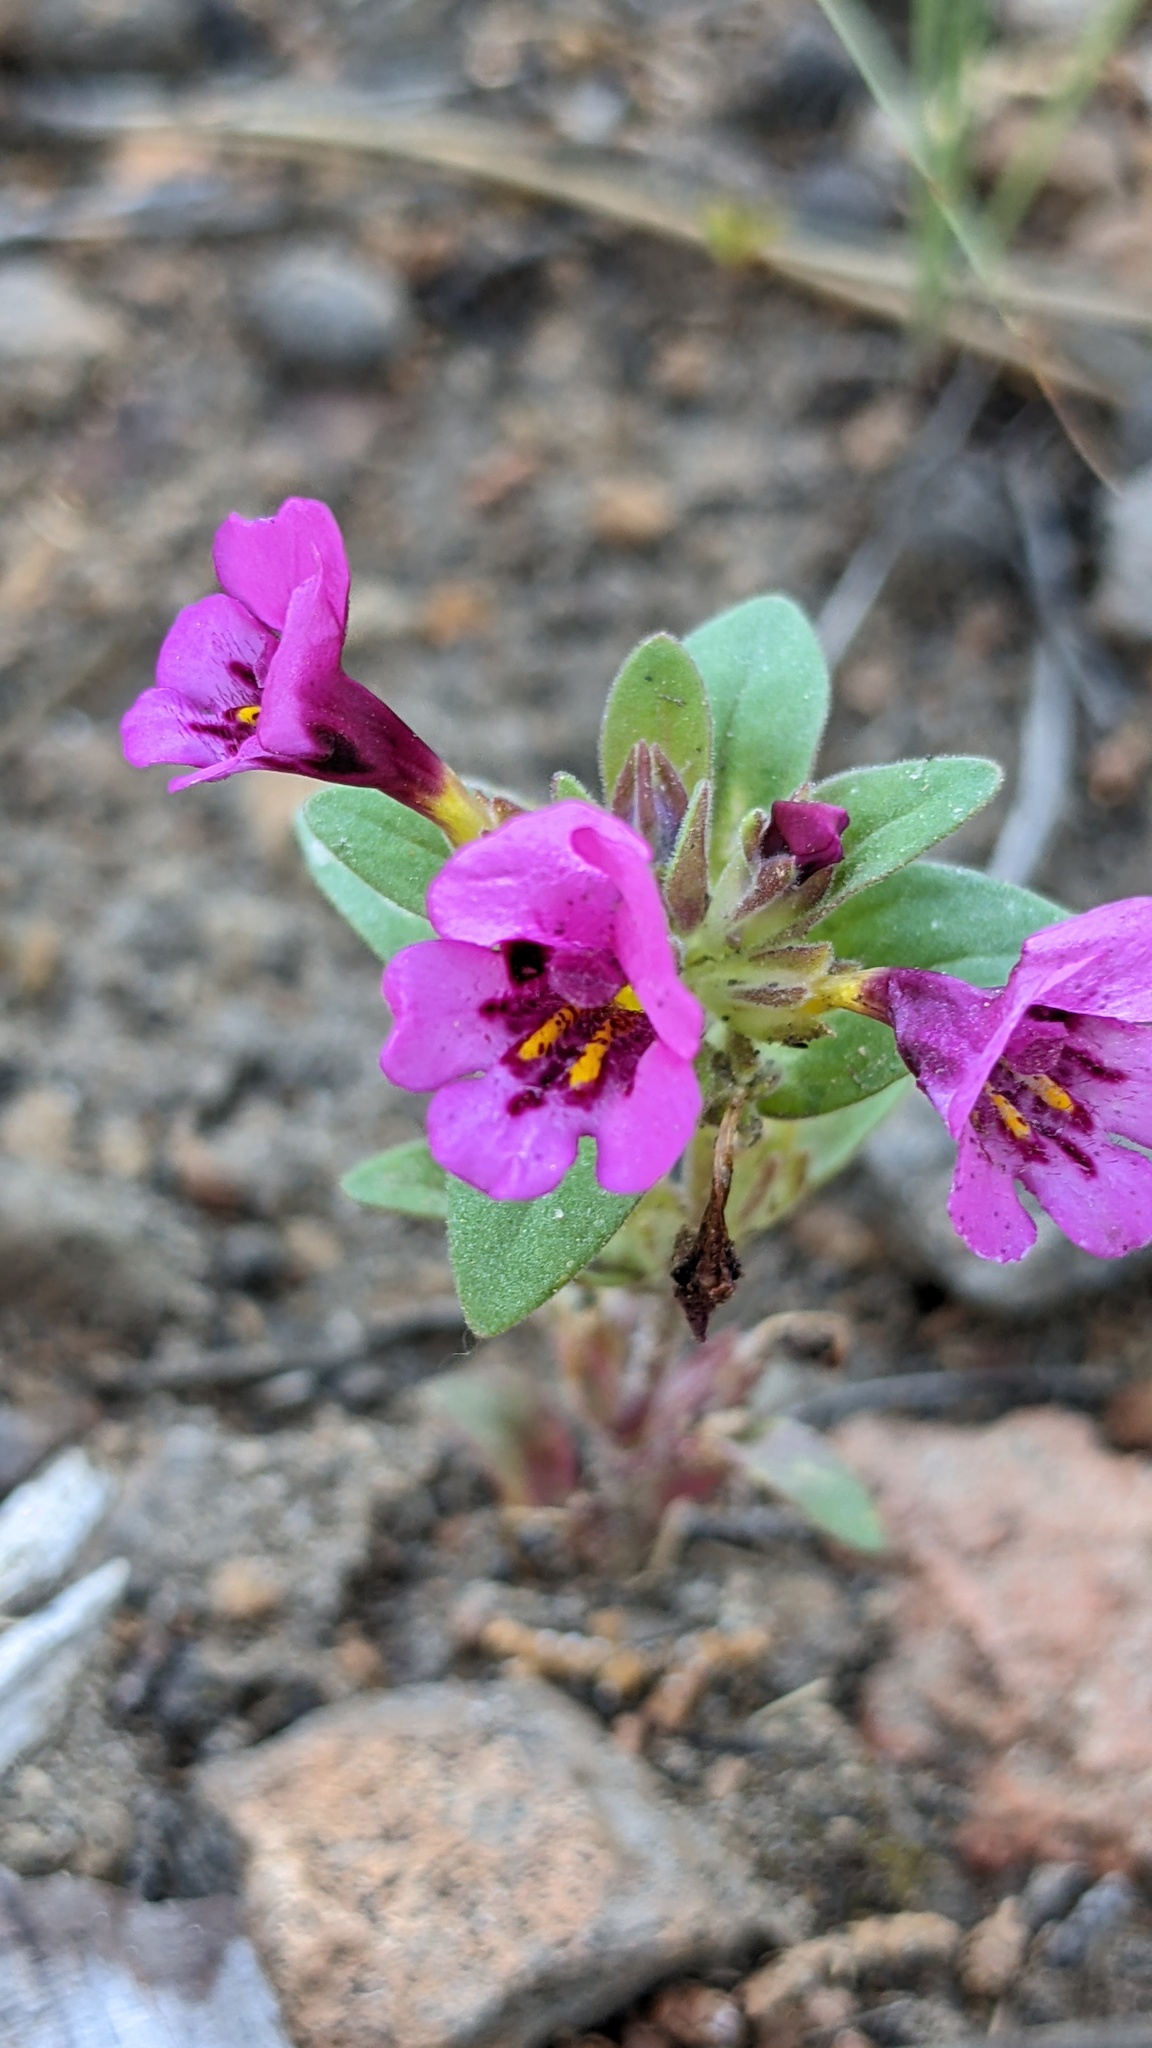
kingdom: Plantae
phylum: Tracheophyta
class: Magnoliopsida
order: Lamiales
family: Phrymaceae
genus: Diplacus
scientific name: Diplacus nanus
